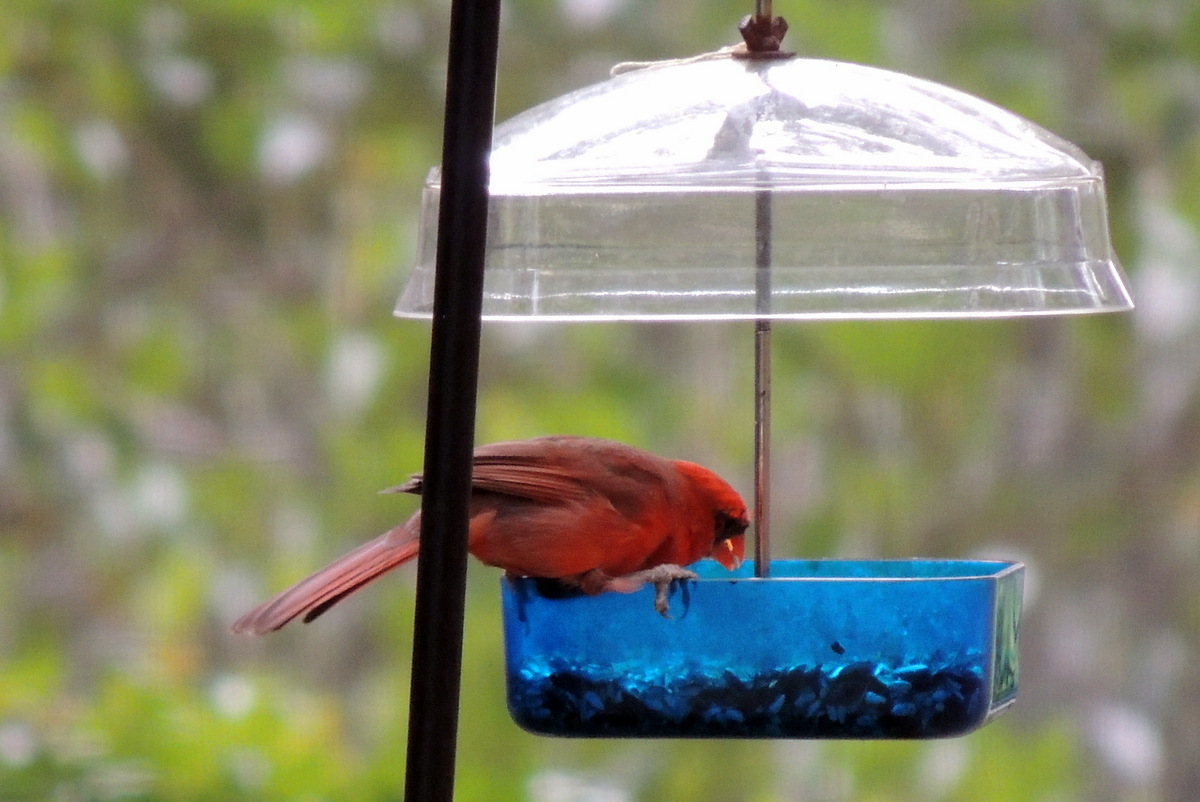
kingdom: Animalia
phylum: Chordata
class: Aves
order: Passeriformes
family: Cardinalidae
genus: Cardinalis
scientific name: Cardinalis cardinalis
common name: Northern cardinal
